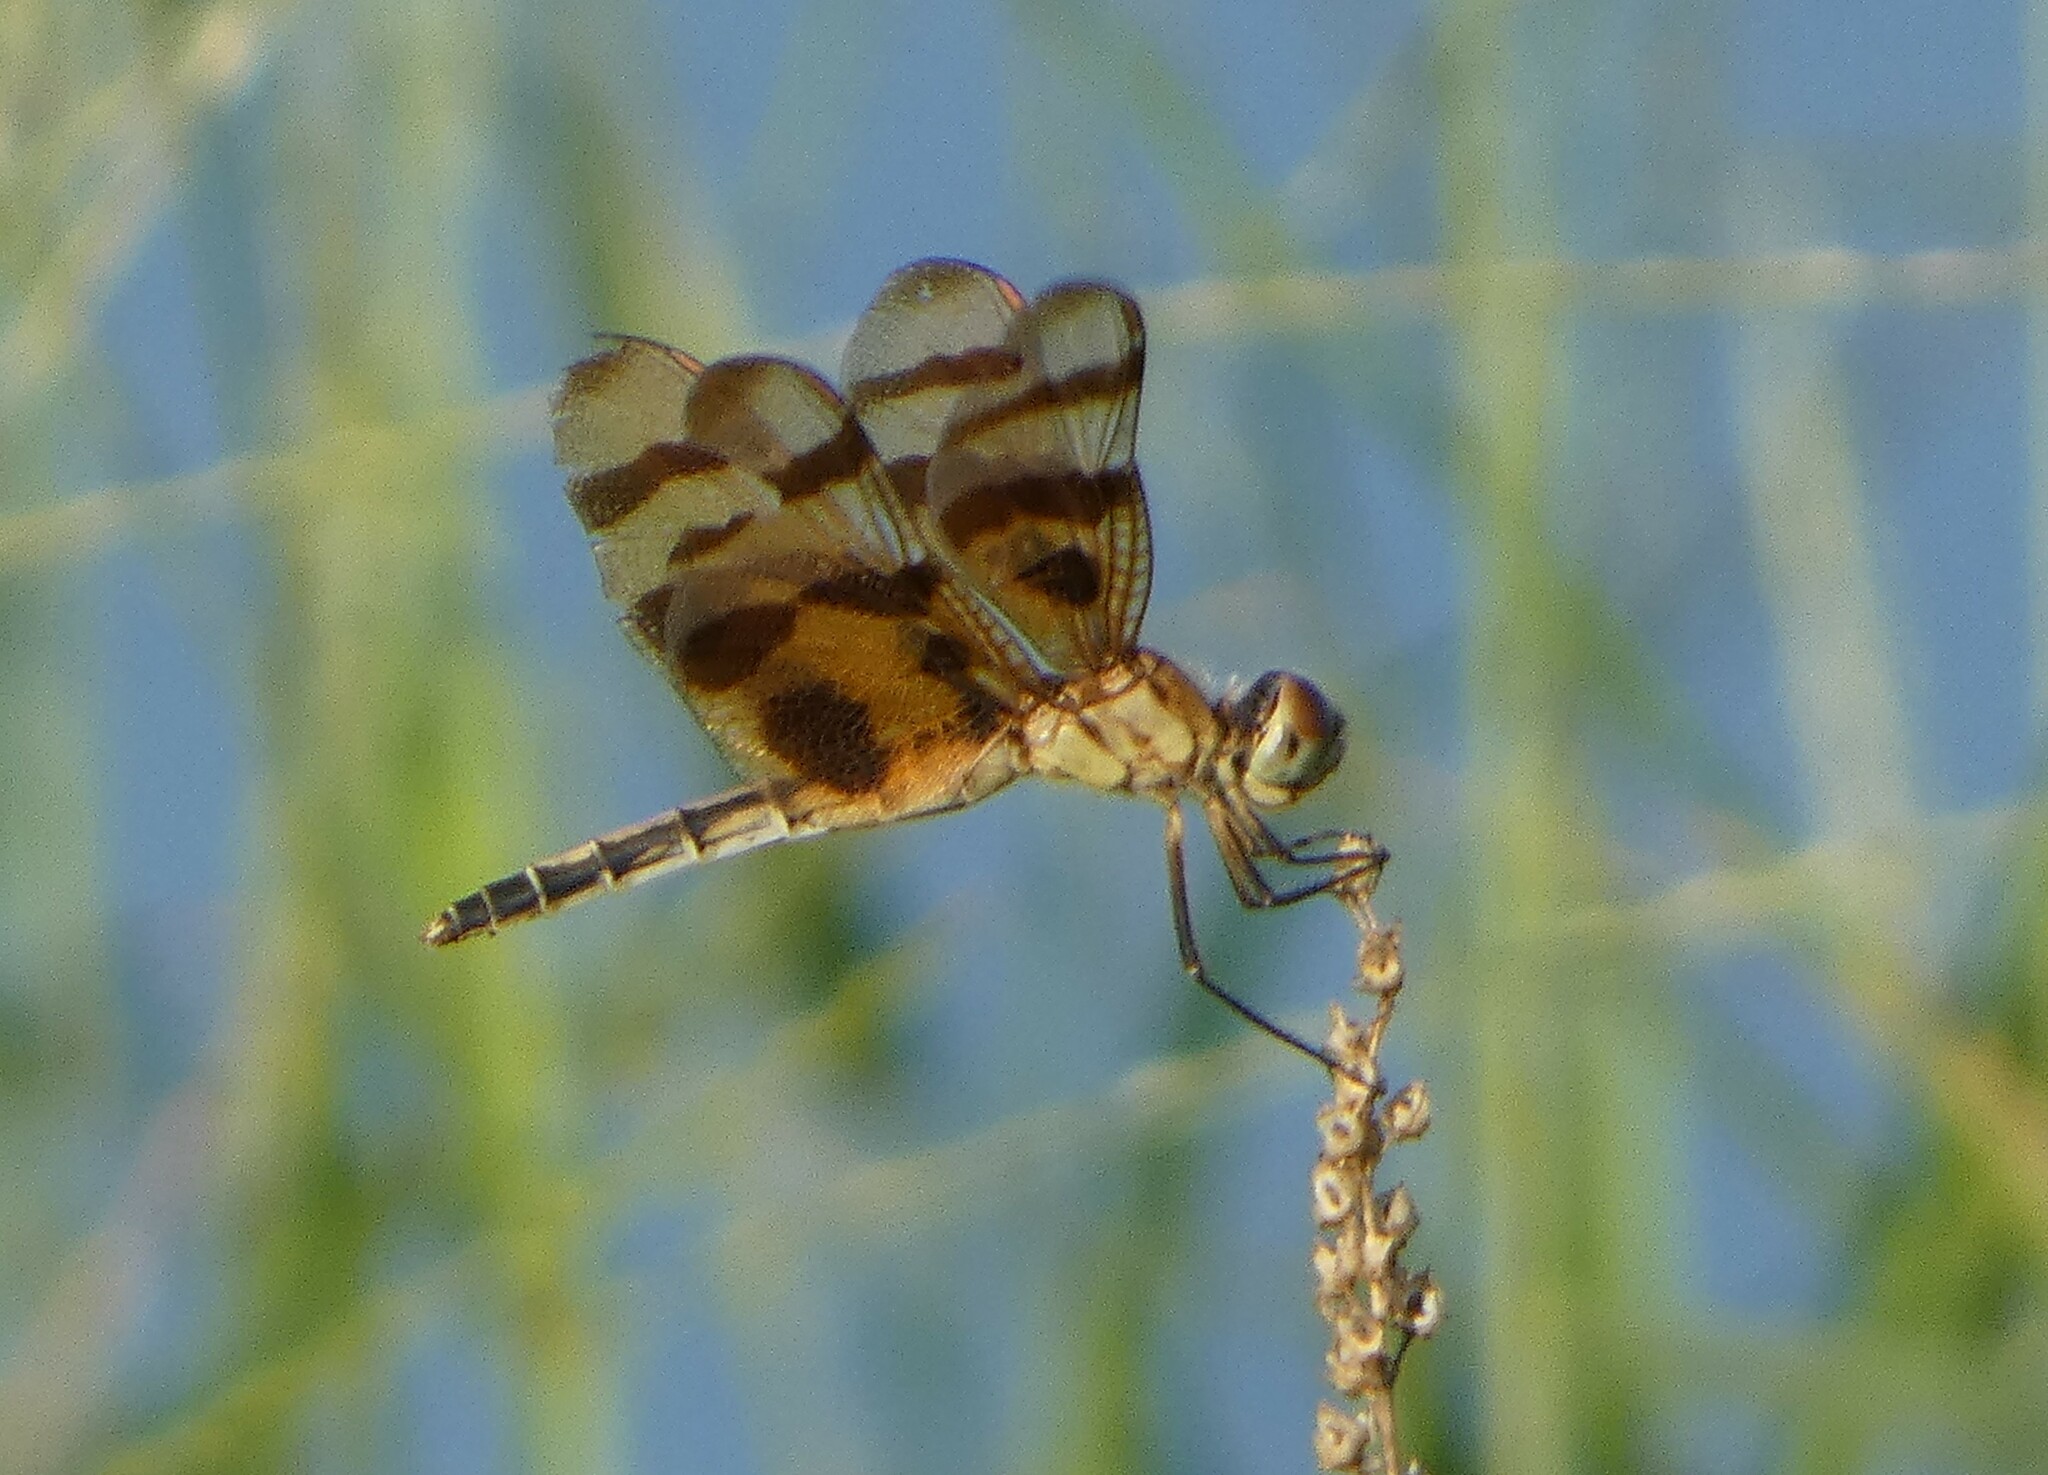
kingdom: Animalia
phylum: Arthropoda
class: Insecta
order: Odonata
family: Libellulidae
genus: Celithemis
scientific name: Celithemis eponina
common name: Halloween pennant
